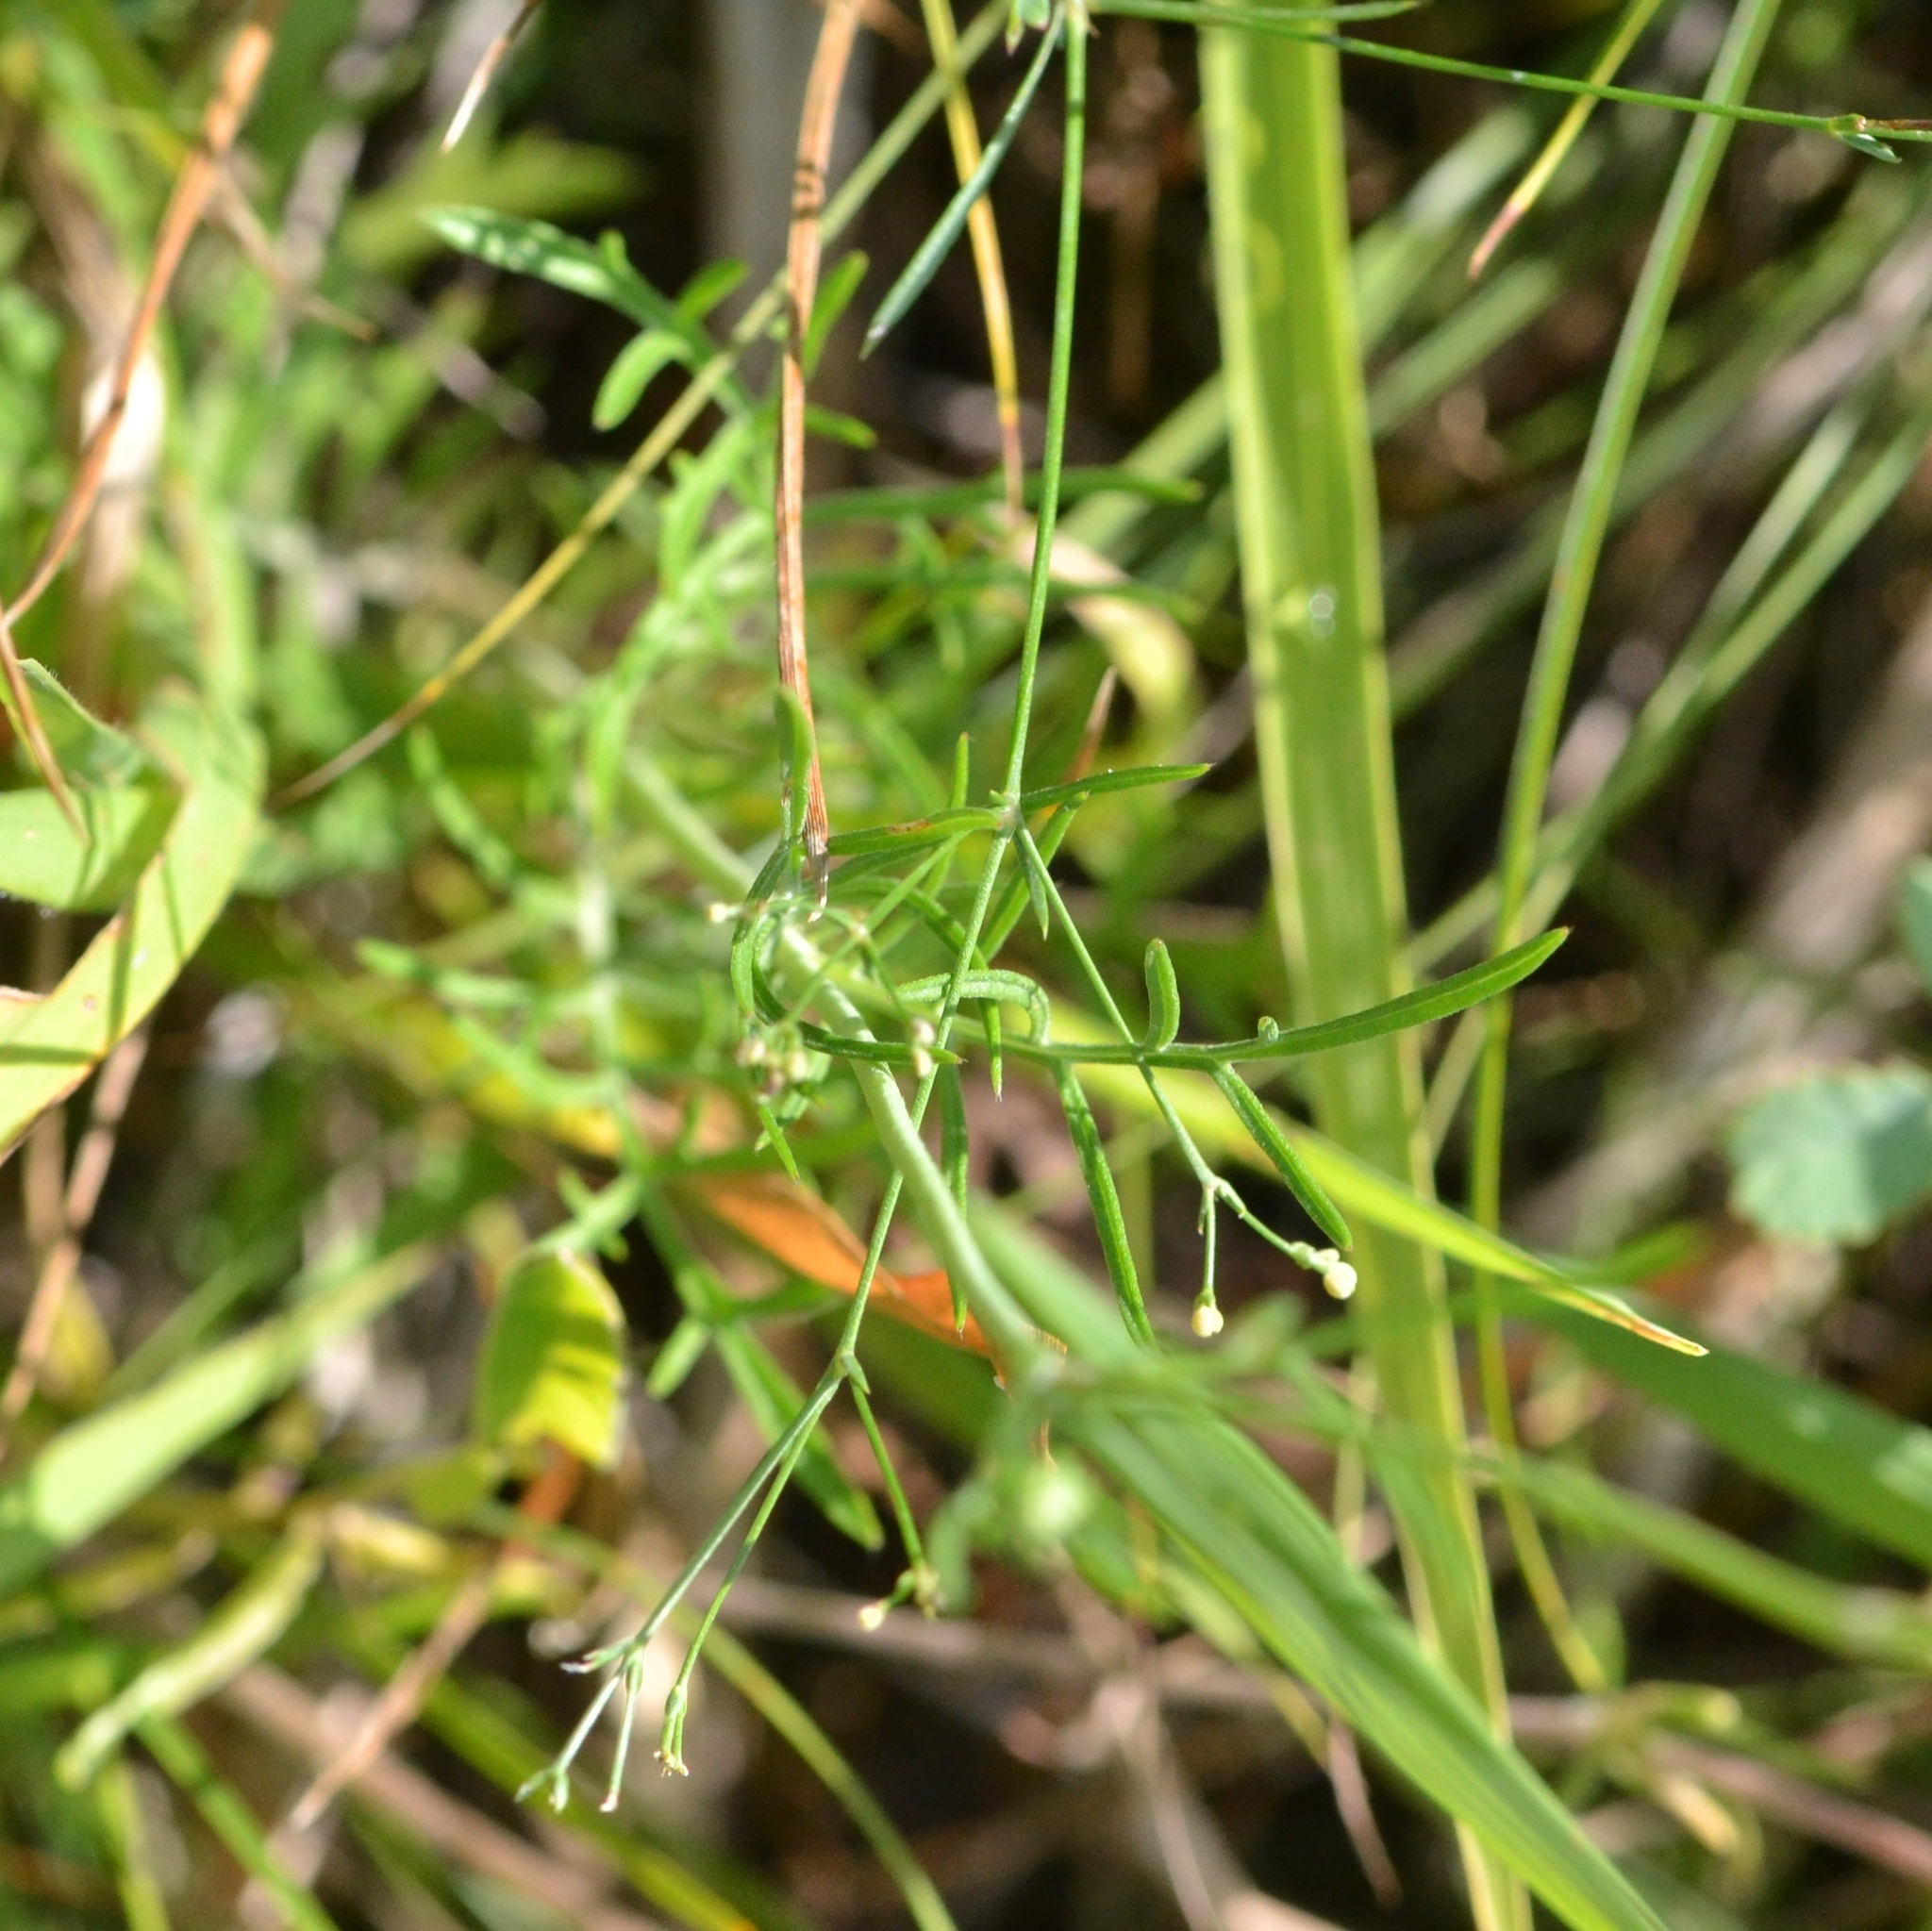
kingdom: Plantae
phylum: Tracheophyta
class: Magnoliopsida
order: Dipsacales
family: Caprifoliaceae
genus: Scabiosa
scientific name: Scabiosa ochroleuca
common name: Cream pincushions
